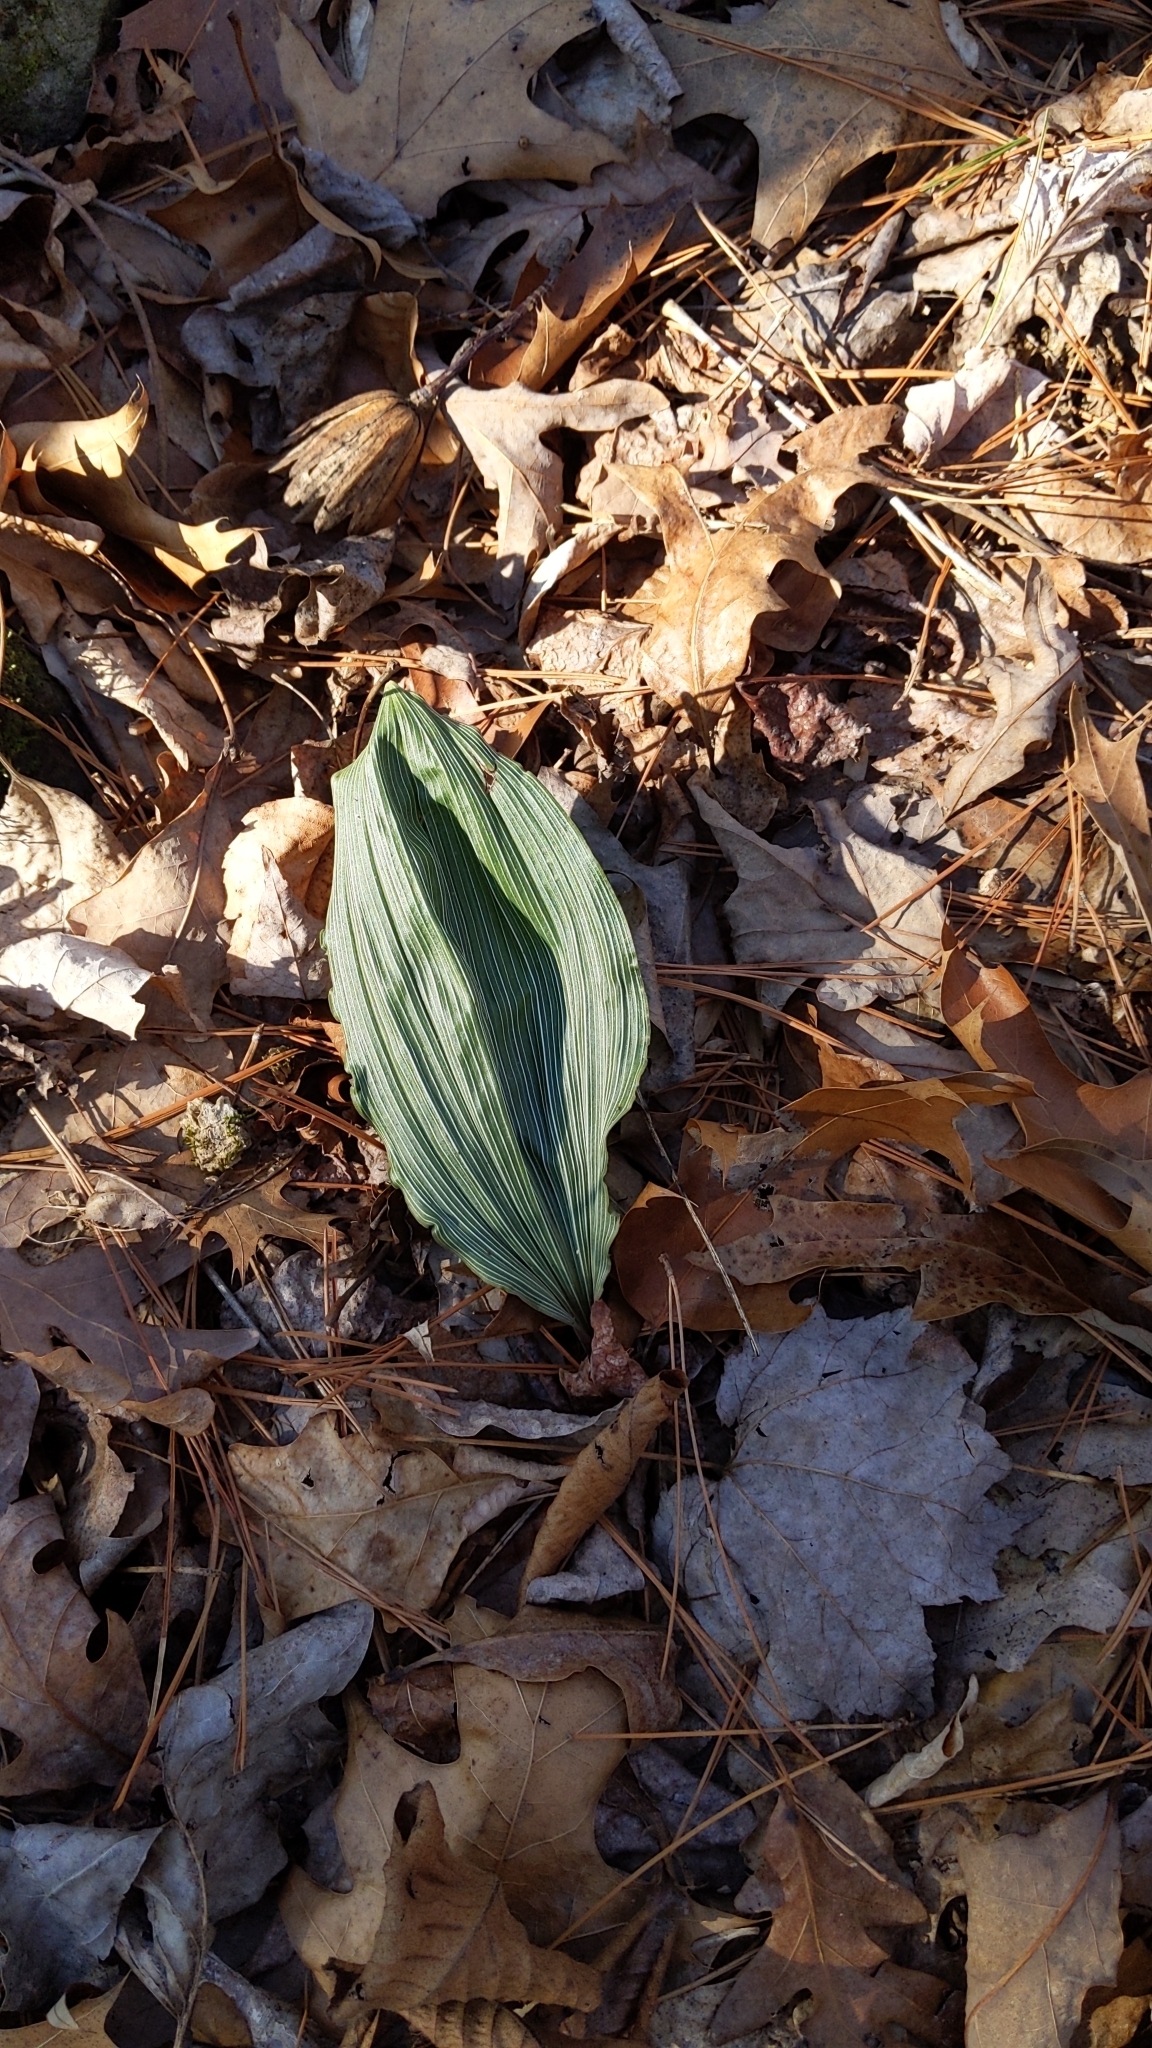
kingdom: Plantae
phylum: Tracheophyta
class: Liliopsida
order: Asparagales
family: Orchidaceae
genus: Aplectrum
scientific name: Aplectrum hyemale
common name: Adam-and-eve
